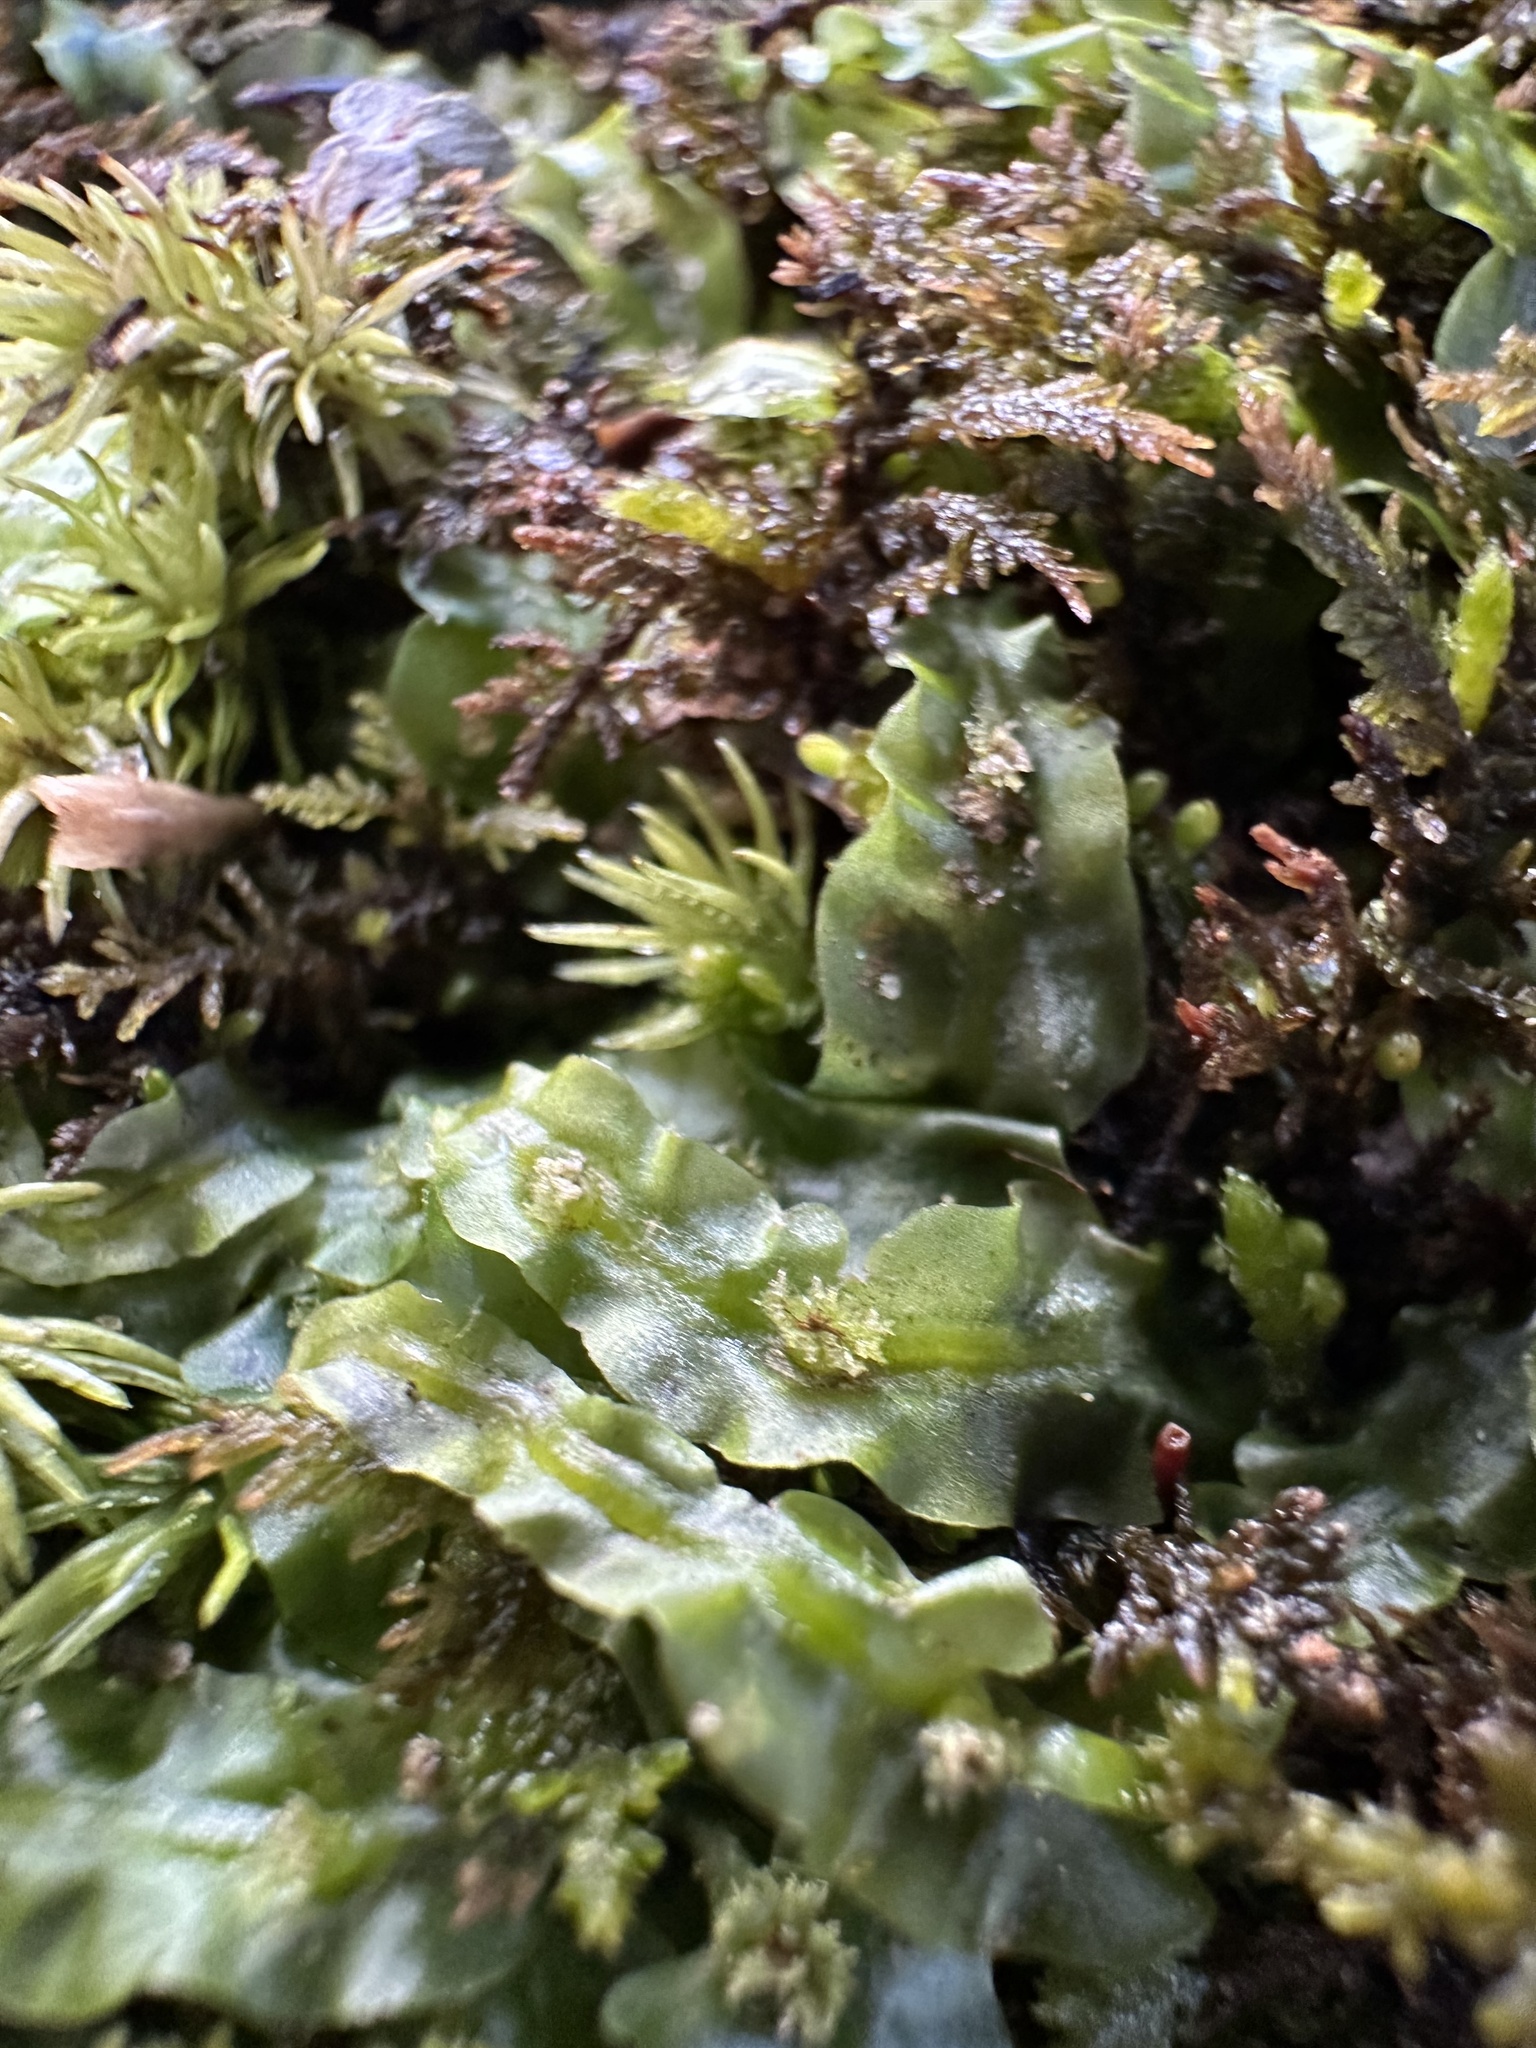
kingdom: Plantae
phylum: Marchantiophyta
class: Jungermanniopsida
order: Pallaviciniales
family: Pallaviciniaceae
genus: Pallavicinia
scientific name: Pallavicinia lyellii
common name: Veilwort
